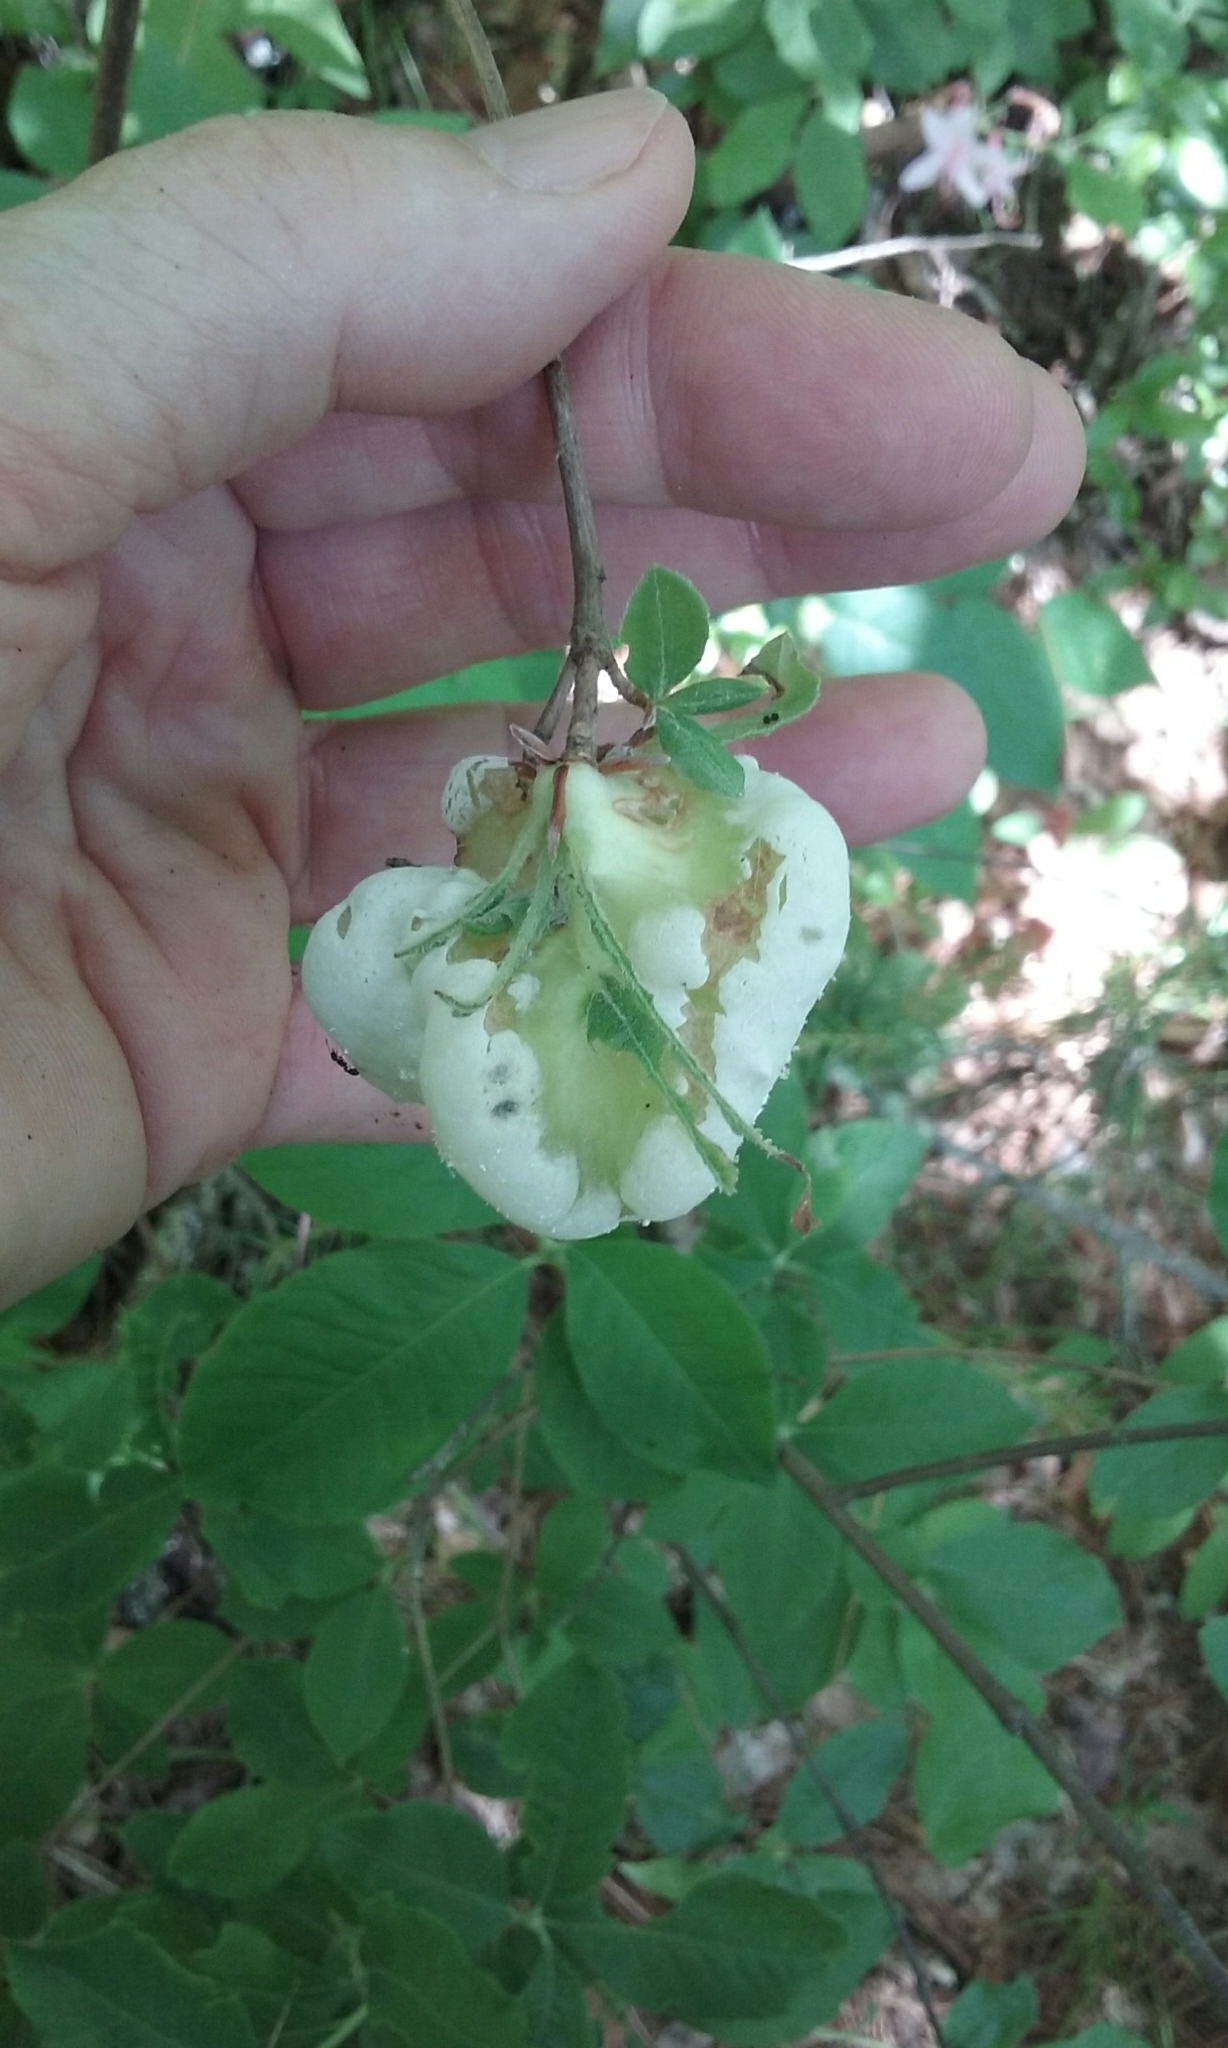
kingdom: Fungi
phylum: Basidiomycota
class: Exobasidiomycetes
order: Exobasidiales
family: Exobasidiaceae
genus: Exobasidium
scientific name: Exobasidium
